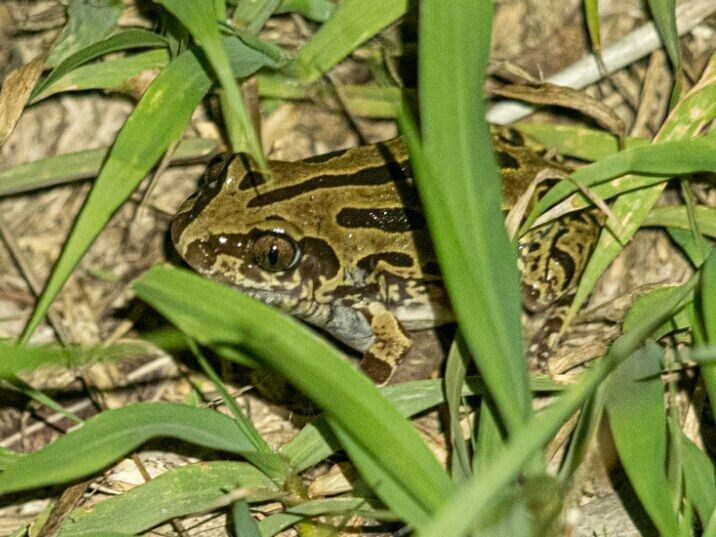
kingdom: Animalia
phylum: Chordata
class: Amphibia
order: Anura
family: Hyperoliidae
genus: Kassina
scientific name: Kassina senegalensis
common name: Senegal land frog
